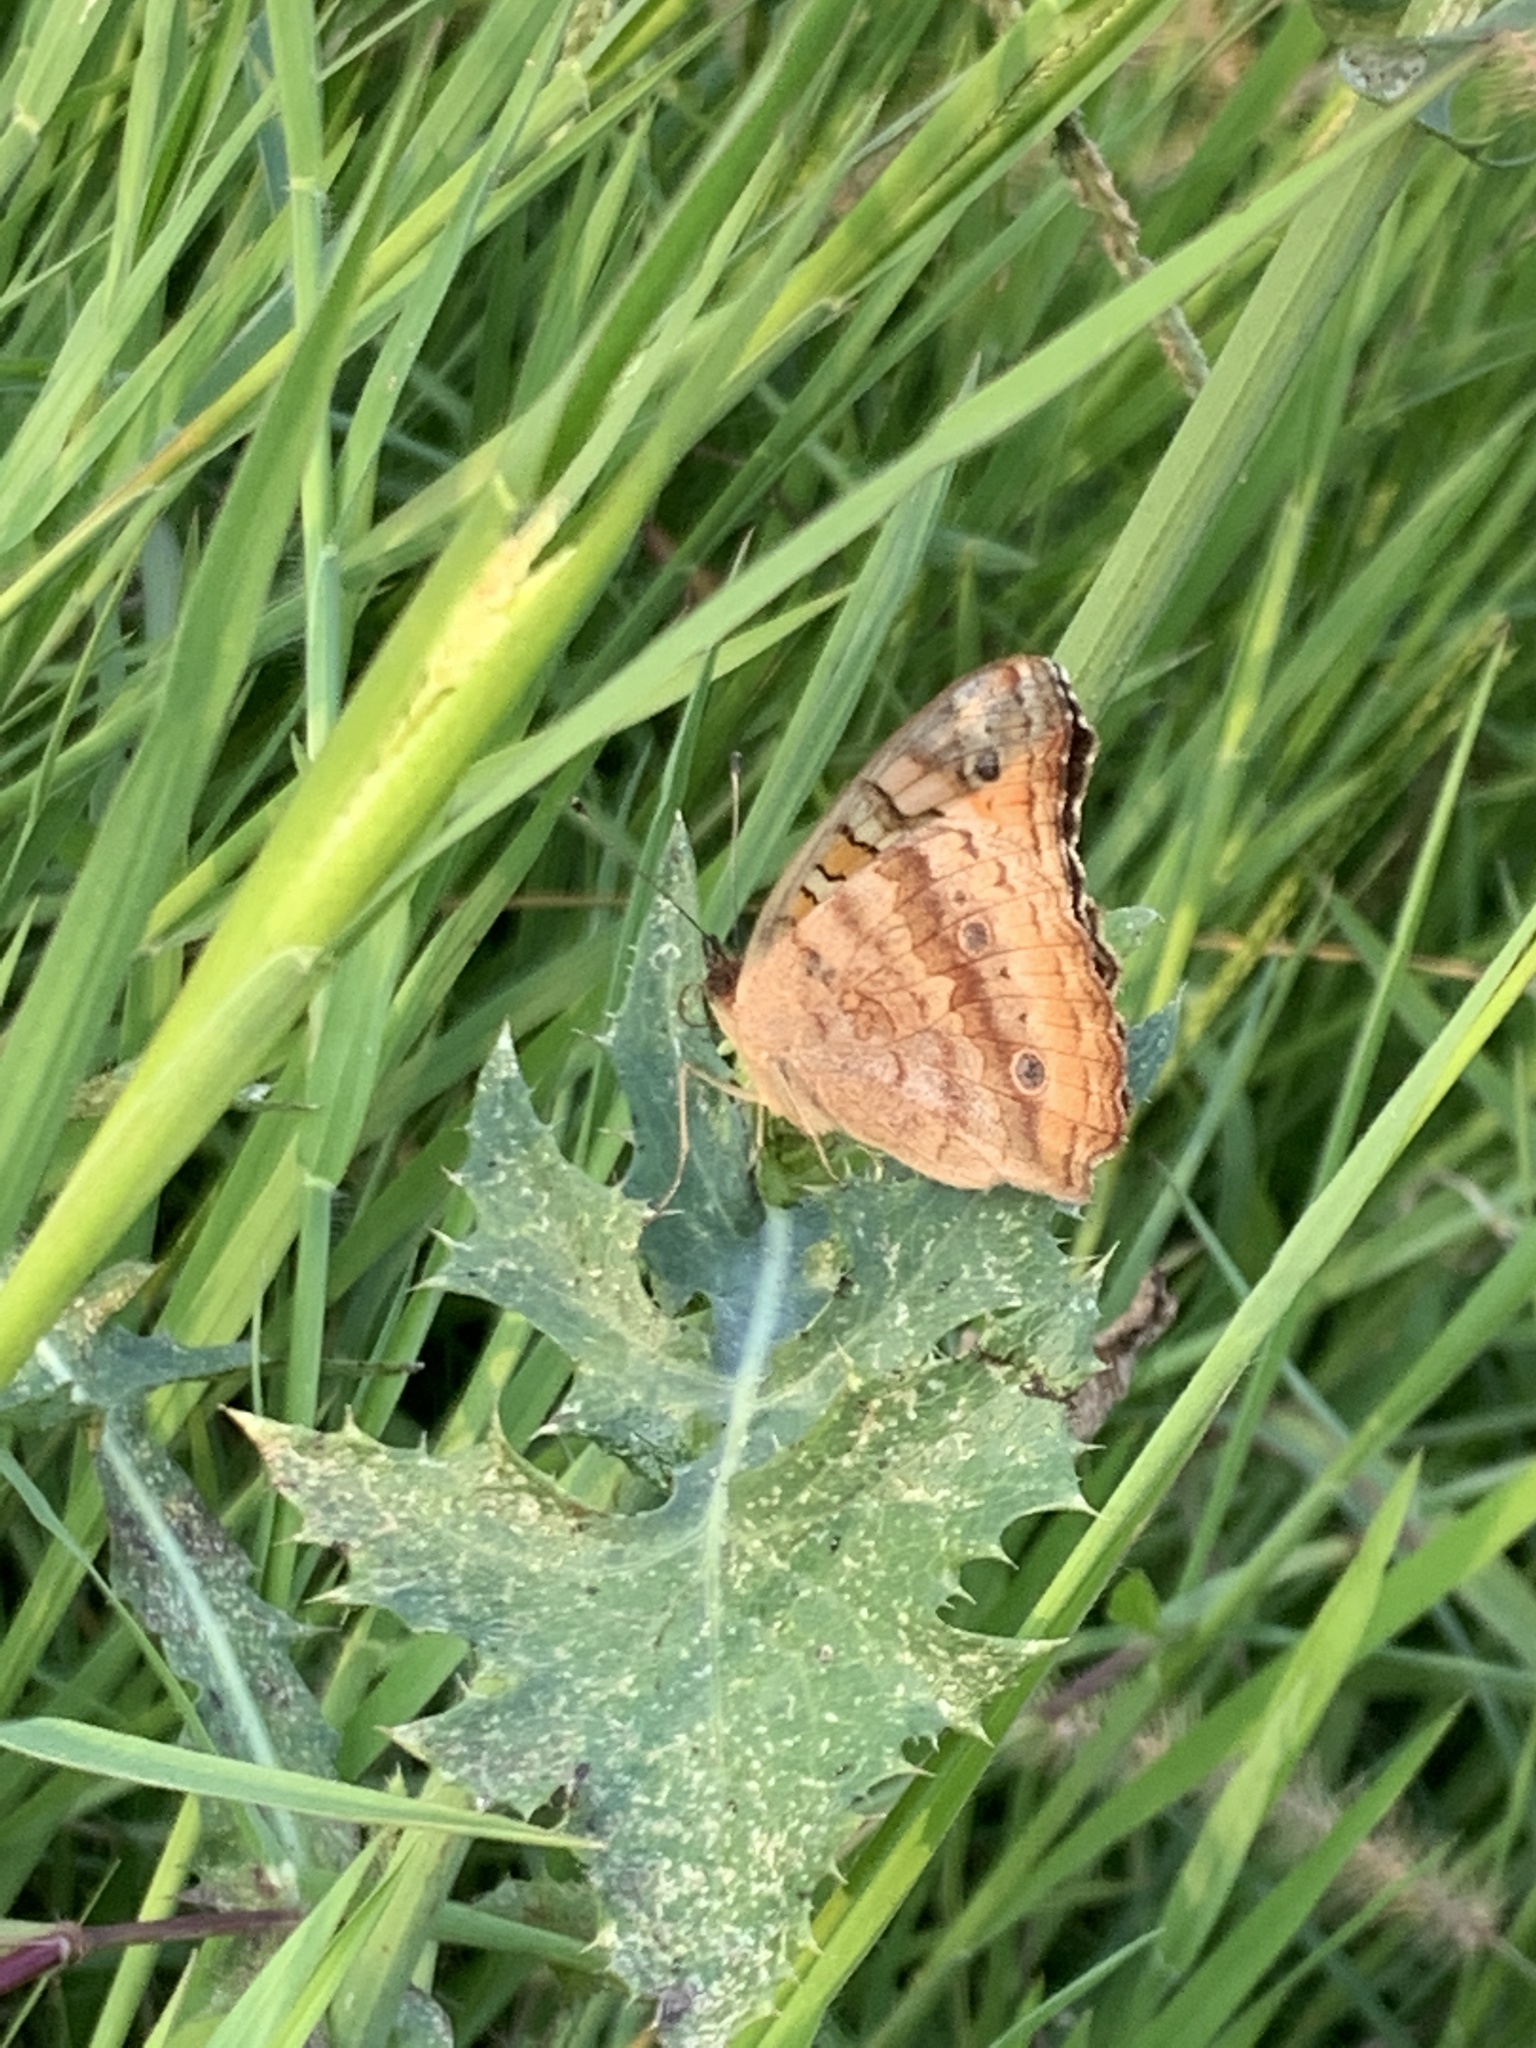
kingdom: Animalia
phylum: Arthropoda
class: Insecta
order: Lepidoptera
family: Nymphalidae
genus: Junonia
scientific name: Junonia lavinia
